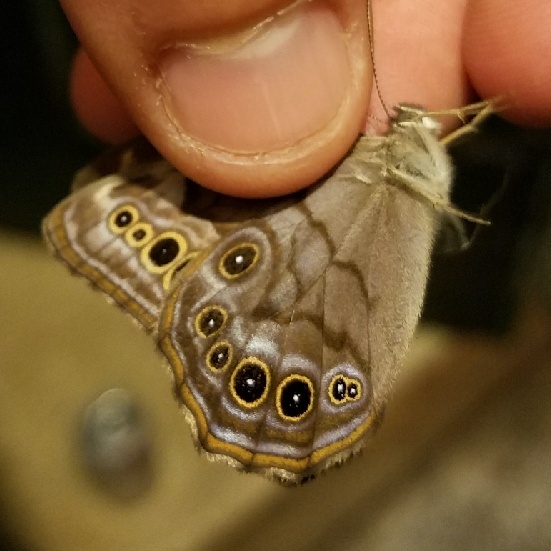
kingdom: Animalia
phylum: Arthropoda
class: Insecta
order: Lepidoptera
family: Nymphalidae
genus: Lethe
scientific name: Lethe anthedon
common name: Northern pearly-eye
